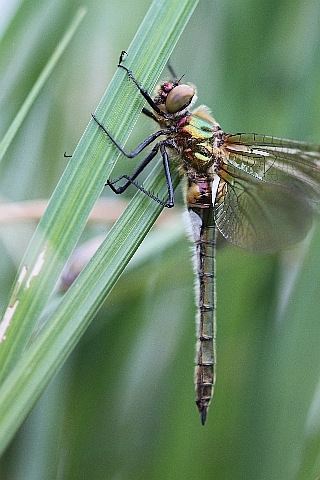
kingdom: Animalia
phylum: Arthropoda
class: Insecta
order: Odonata
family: Corduliidae
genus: Cordulia
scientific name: Cordulia aenea
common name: Downy emerald
